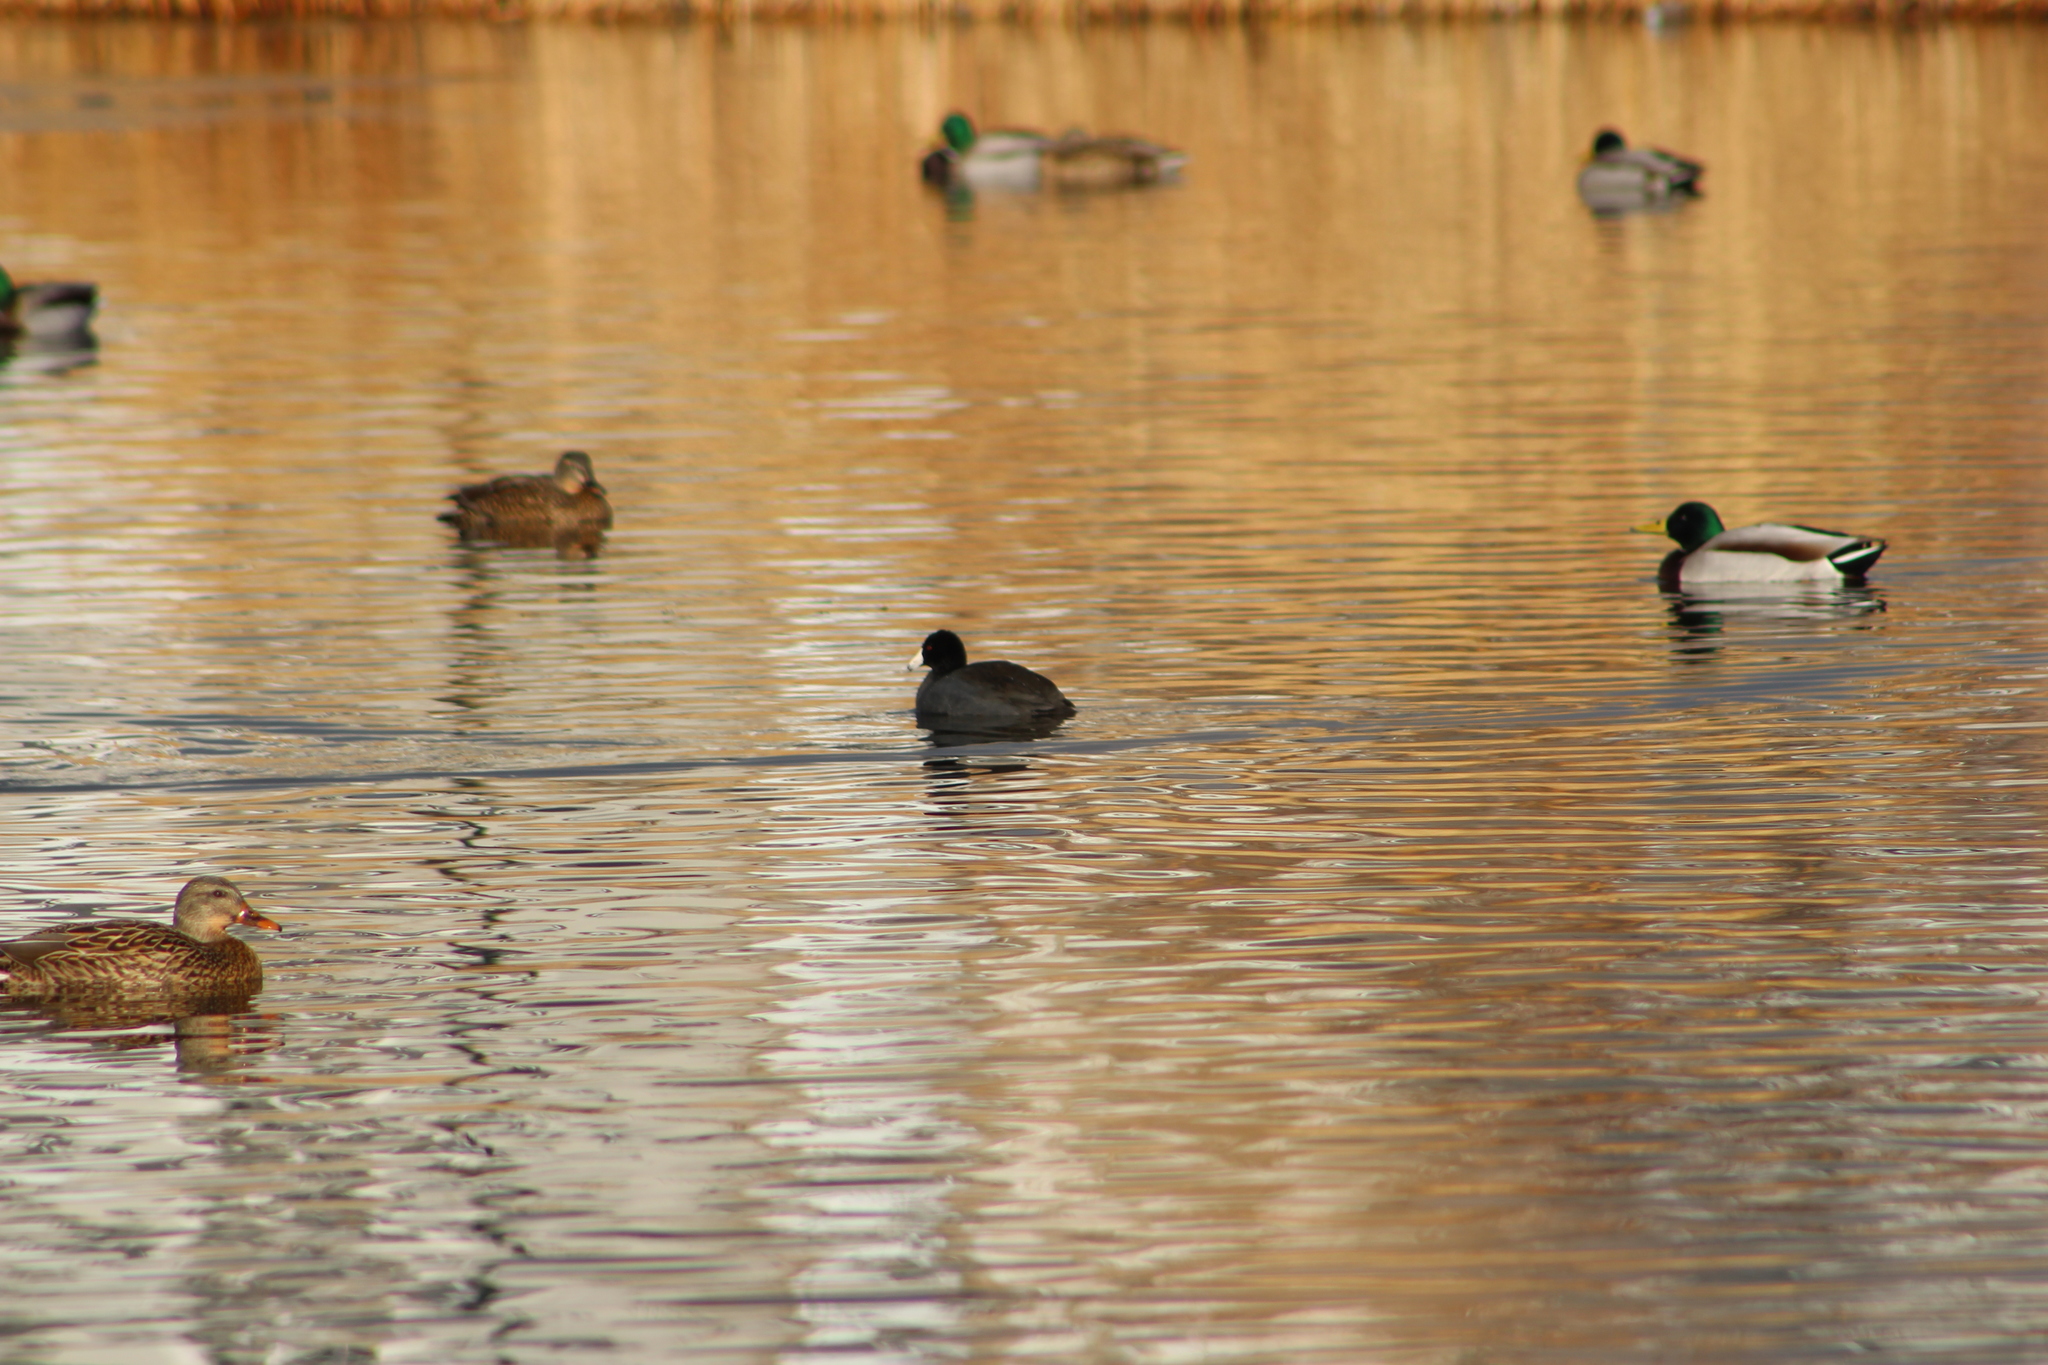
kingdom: Animalia
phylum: Chordata
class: Aves
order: Gruiformes
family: Rallidae
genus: Fulica
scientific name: Fulica americana
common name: American coot
